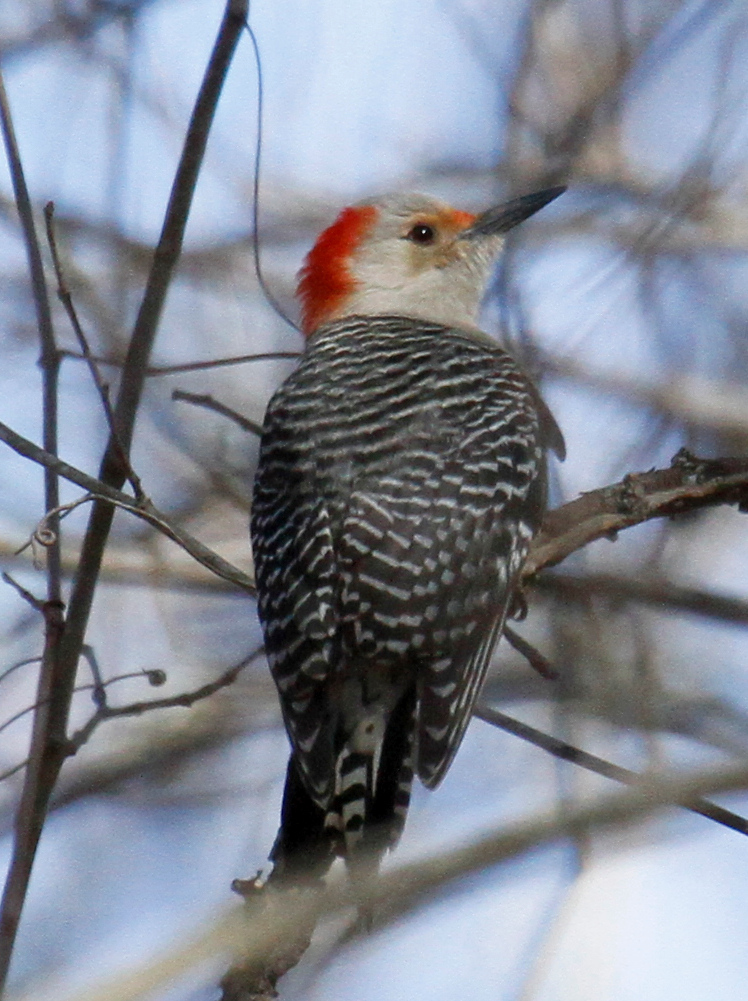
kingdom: Animalia
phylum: Chordata
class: Aves
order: Piciformes
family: Picidae
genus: Melanerpes
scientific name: Melanerpes carolinus
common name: Red-bellied woodpecker
